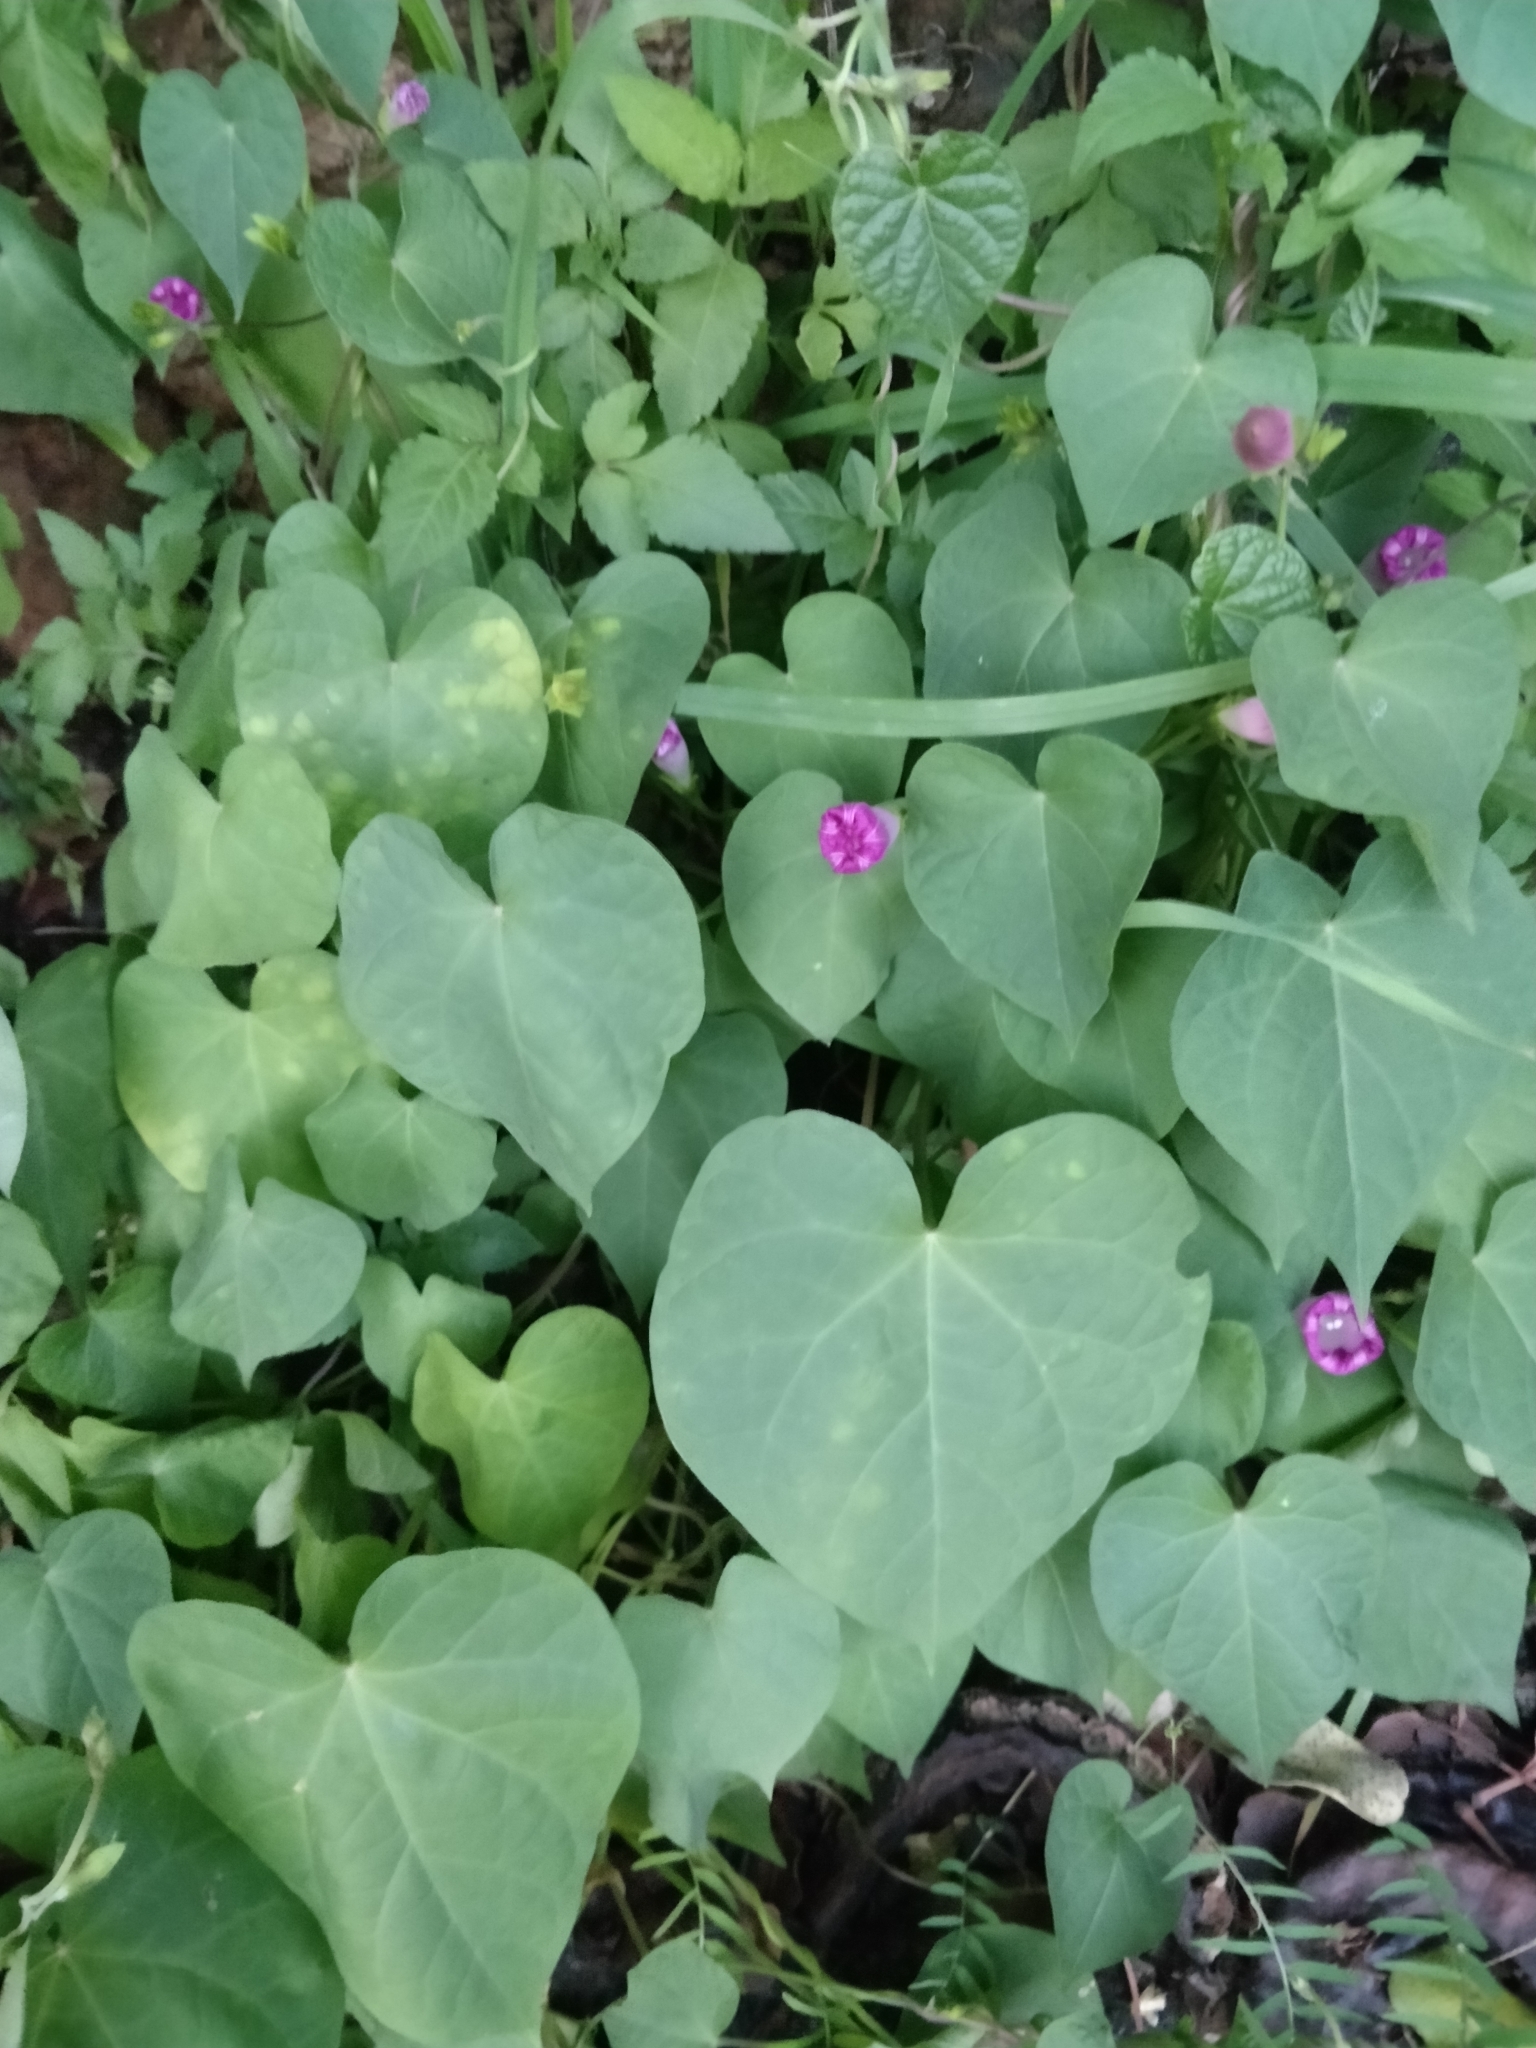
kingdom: Plantae
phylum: Tracheophyta
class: Magnoliopsida
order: Solanales
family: Convolvulaceae
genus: Ipomoea
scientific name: Ipomoea purpurea
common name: Common morning-glory
